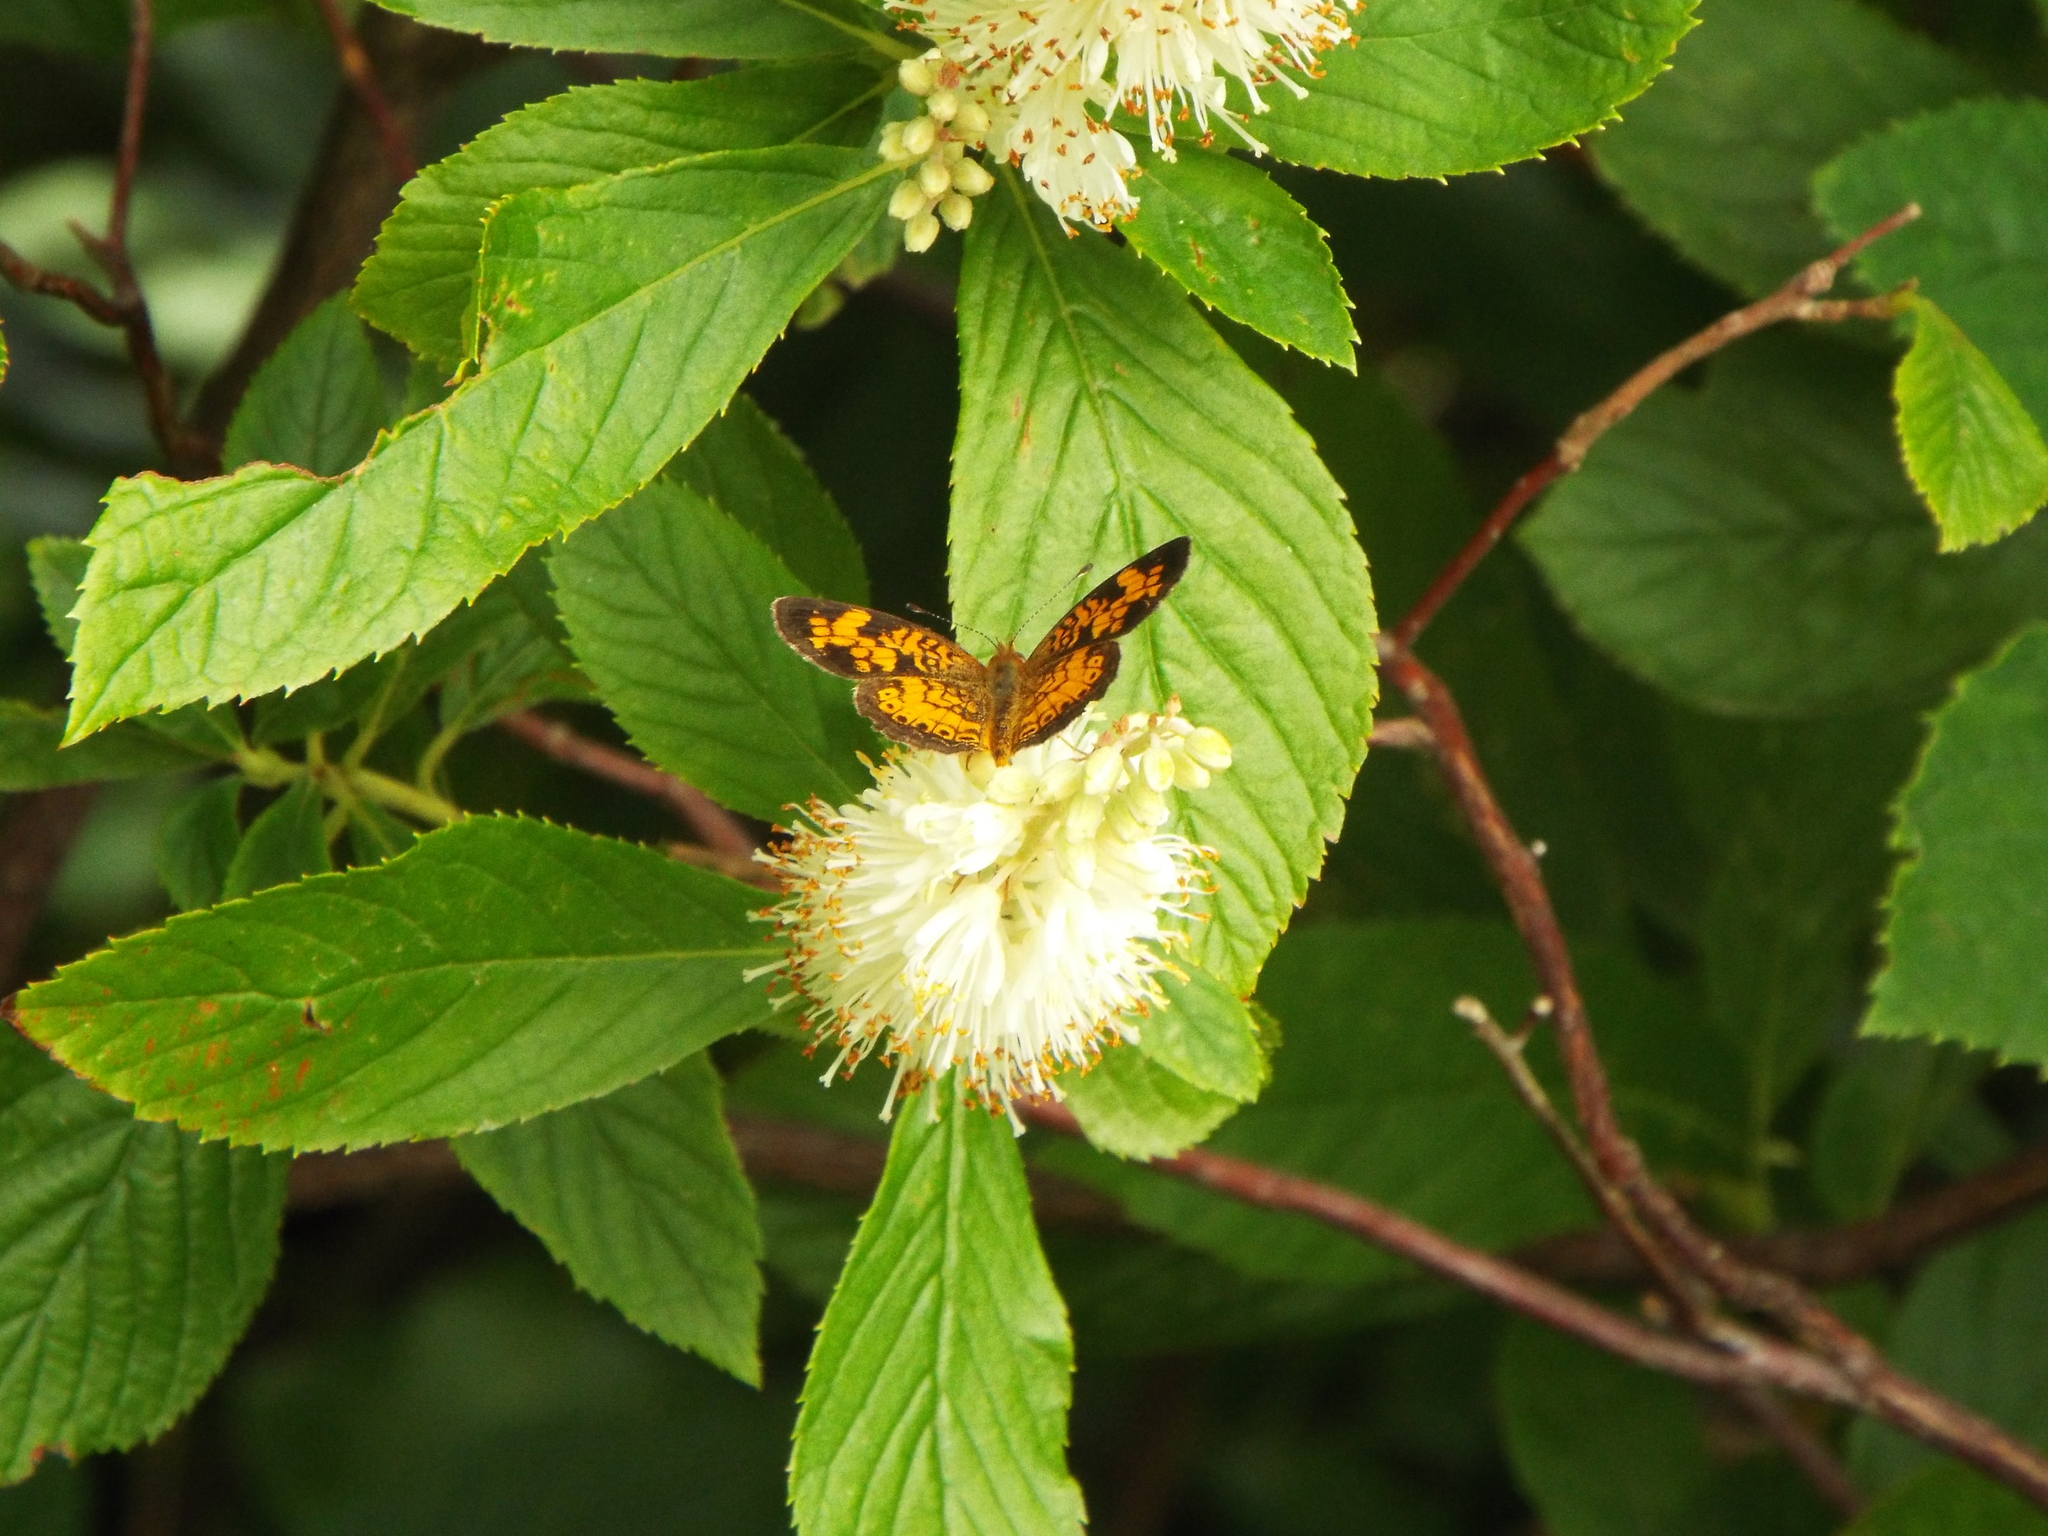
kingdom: Animalia
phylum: Arthropoda
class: Insecta
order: Lepidoptera
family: Nymphalidae
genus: Phyciodes
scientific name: Phyciodes tharos
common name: Pearl crescent
